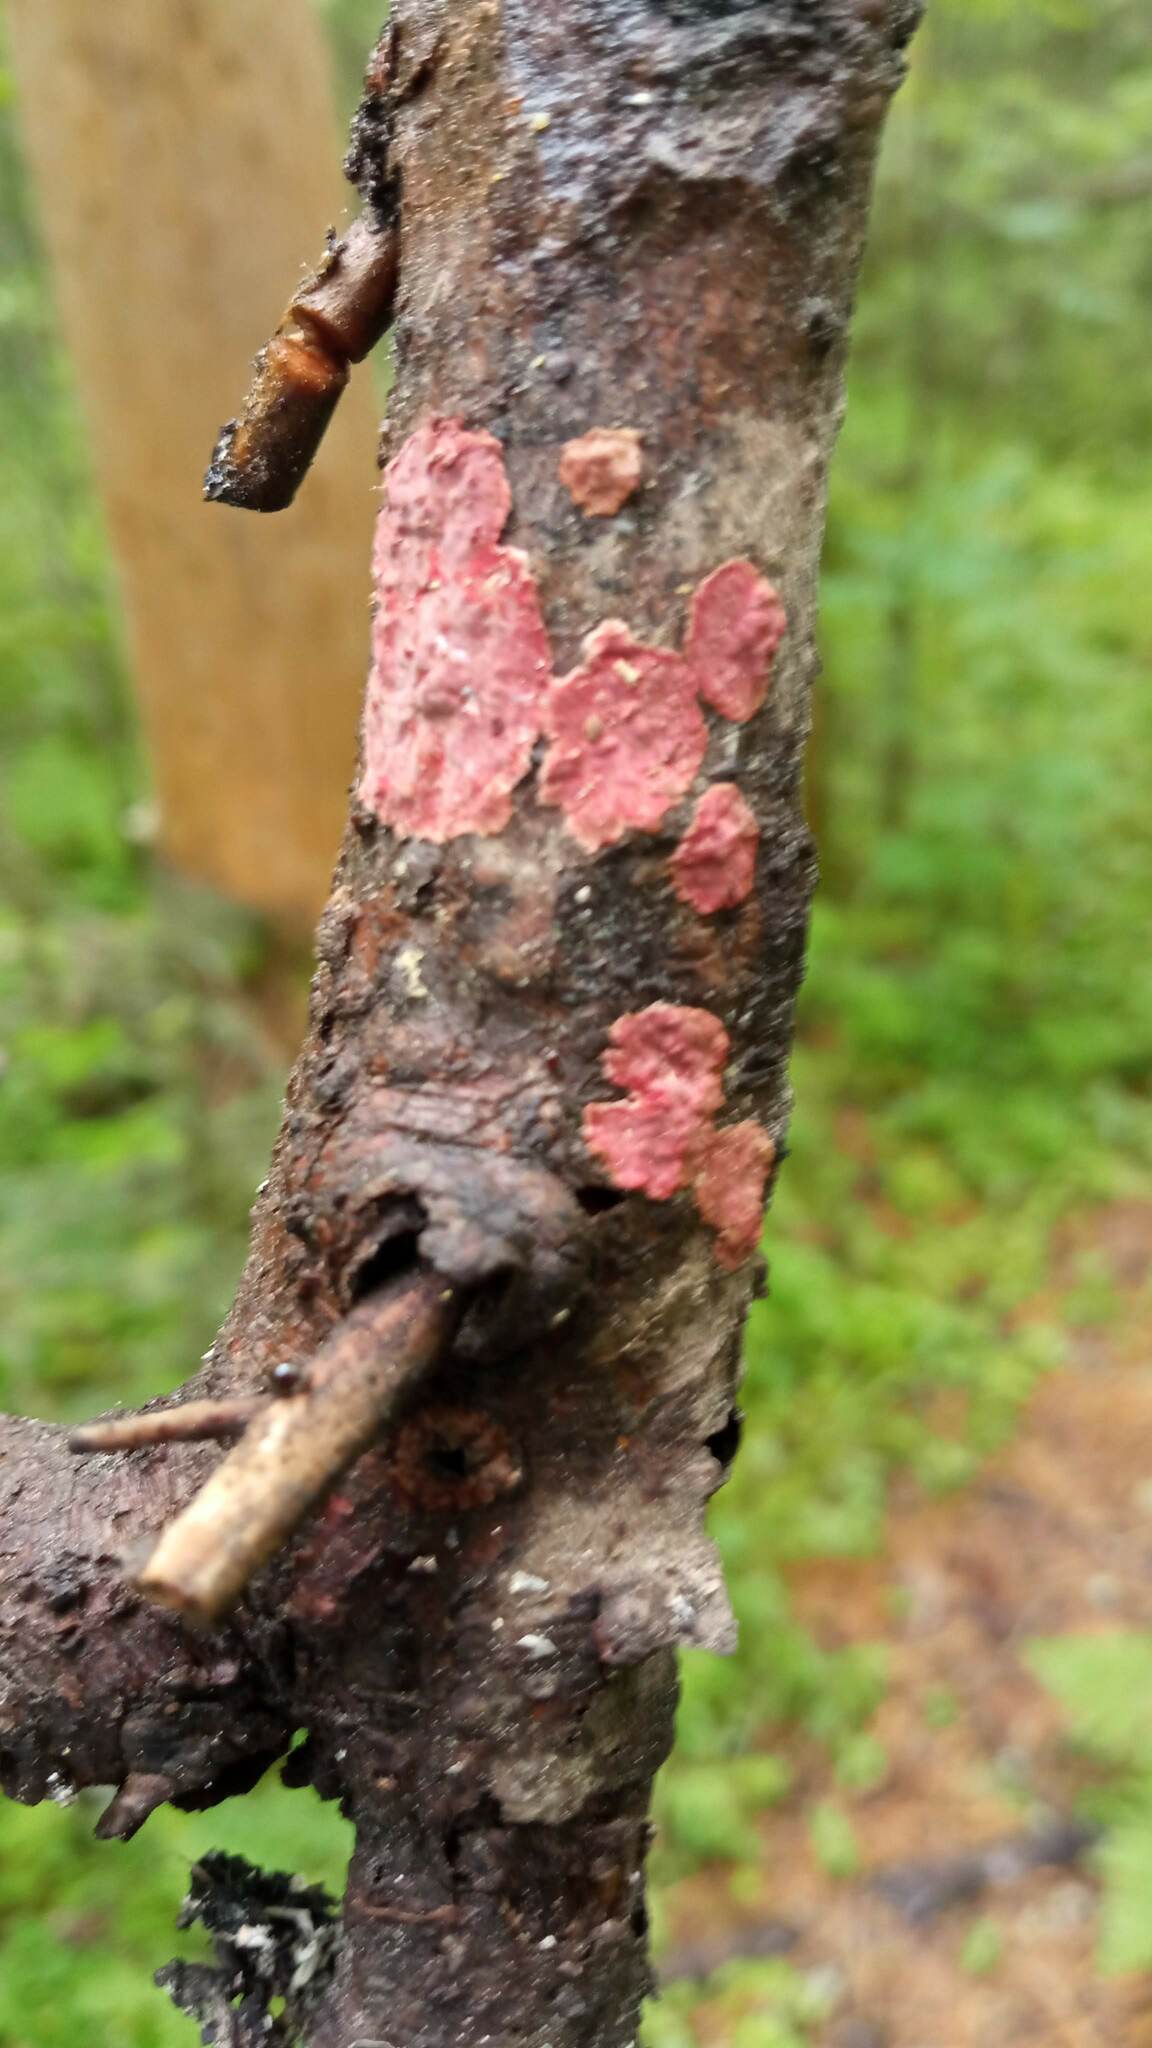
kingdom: Fungi
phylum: Basidiomycota
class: Agaricomycetes
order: Hymenochaetales
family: Hymenochaetaceae
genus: Hymenochaete
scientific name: Hymenochaete cruenta
